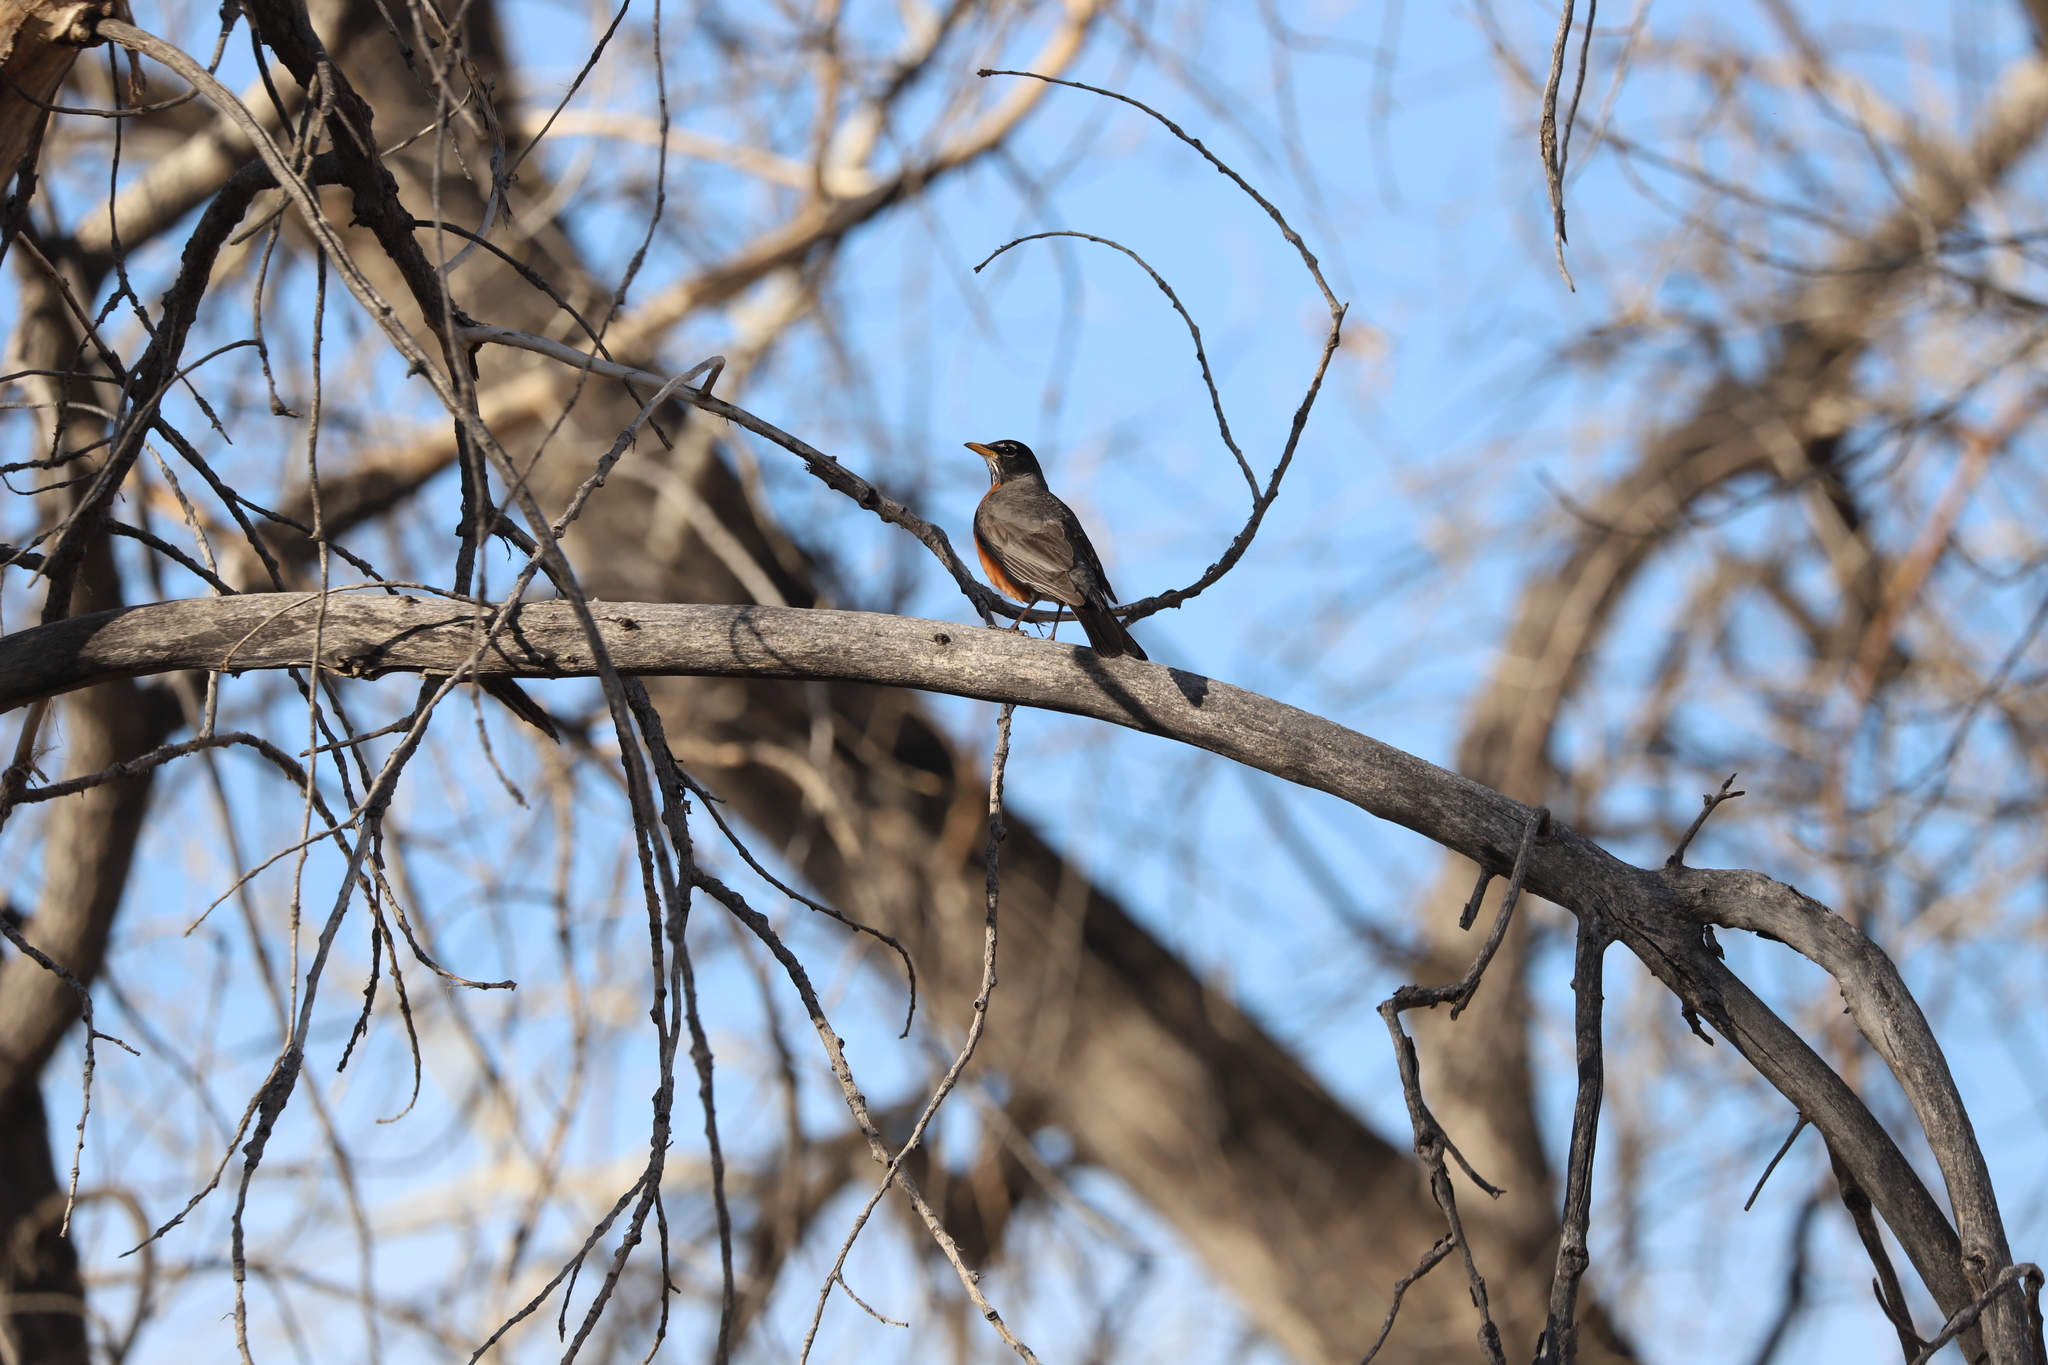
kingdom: Animalia
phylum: Chordata
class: Aves
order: Passeriformes
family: Turdidae
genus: Turdus
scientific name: Turdus migratorius
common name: American robin
